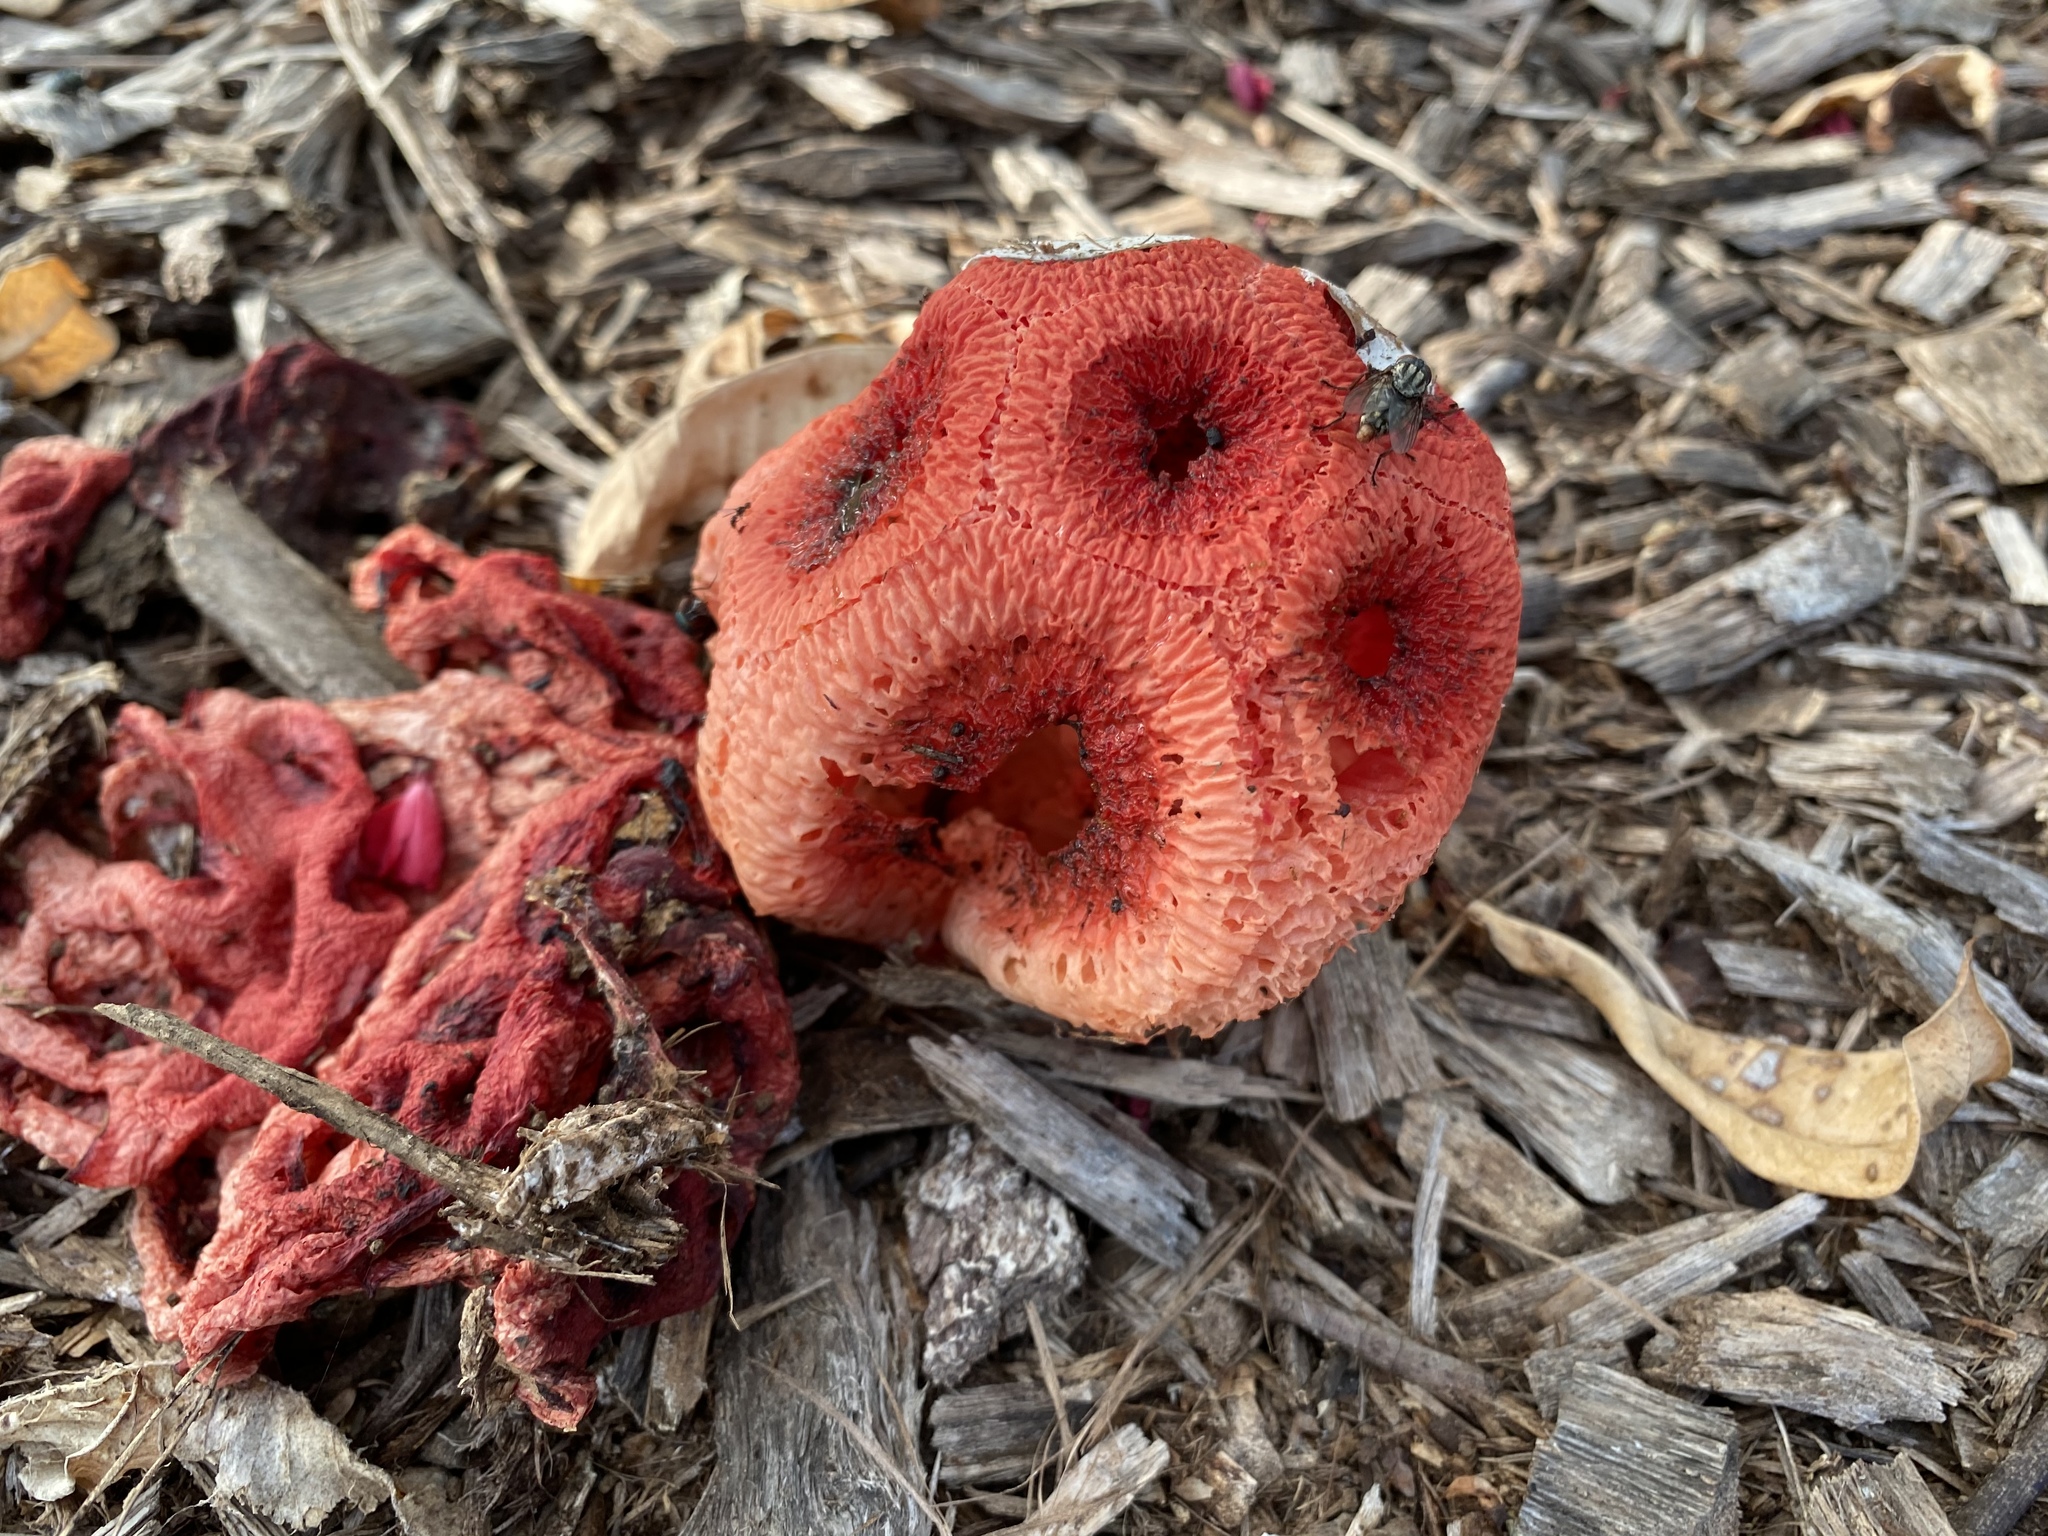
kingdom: Fungi
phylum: Basidiomycota
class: Agaricomycetes
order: Phallales
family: Phallaceae
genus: Clathrus
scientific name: Clathrus crispatus
